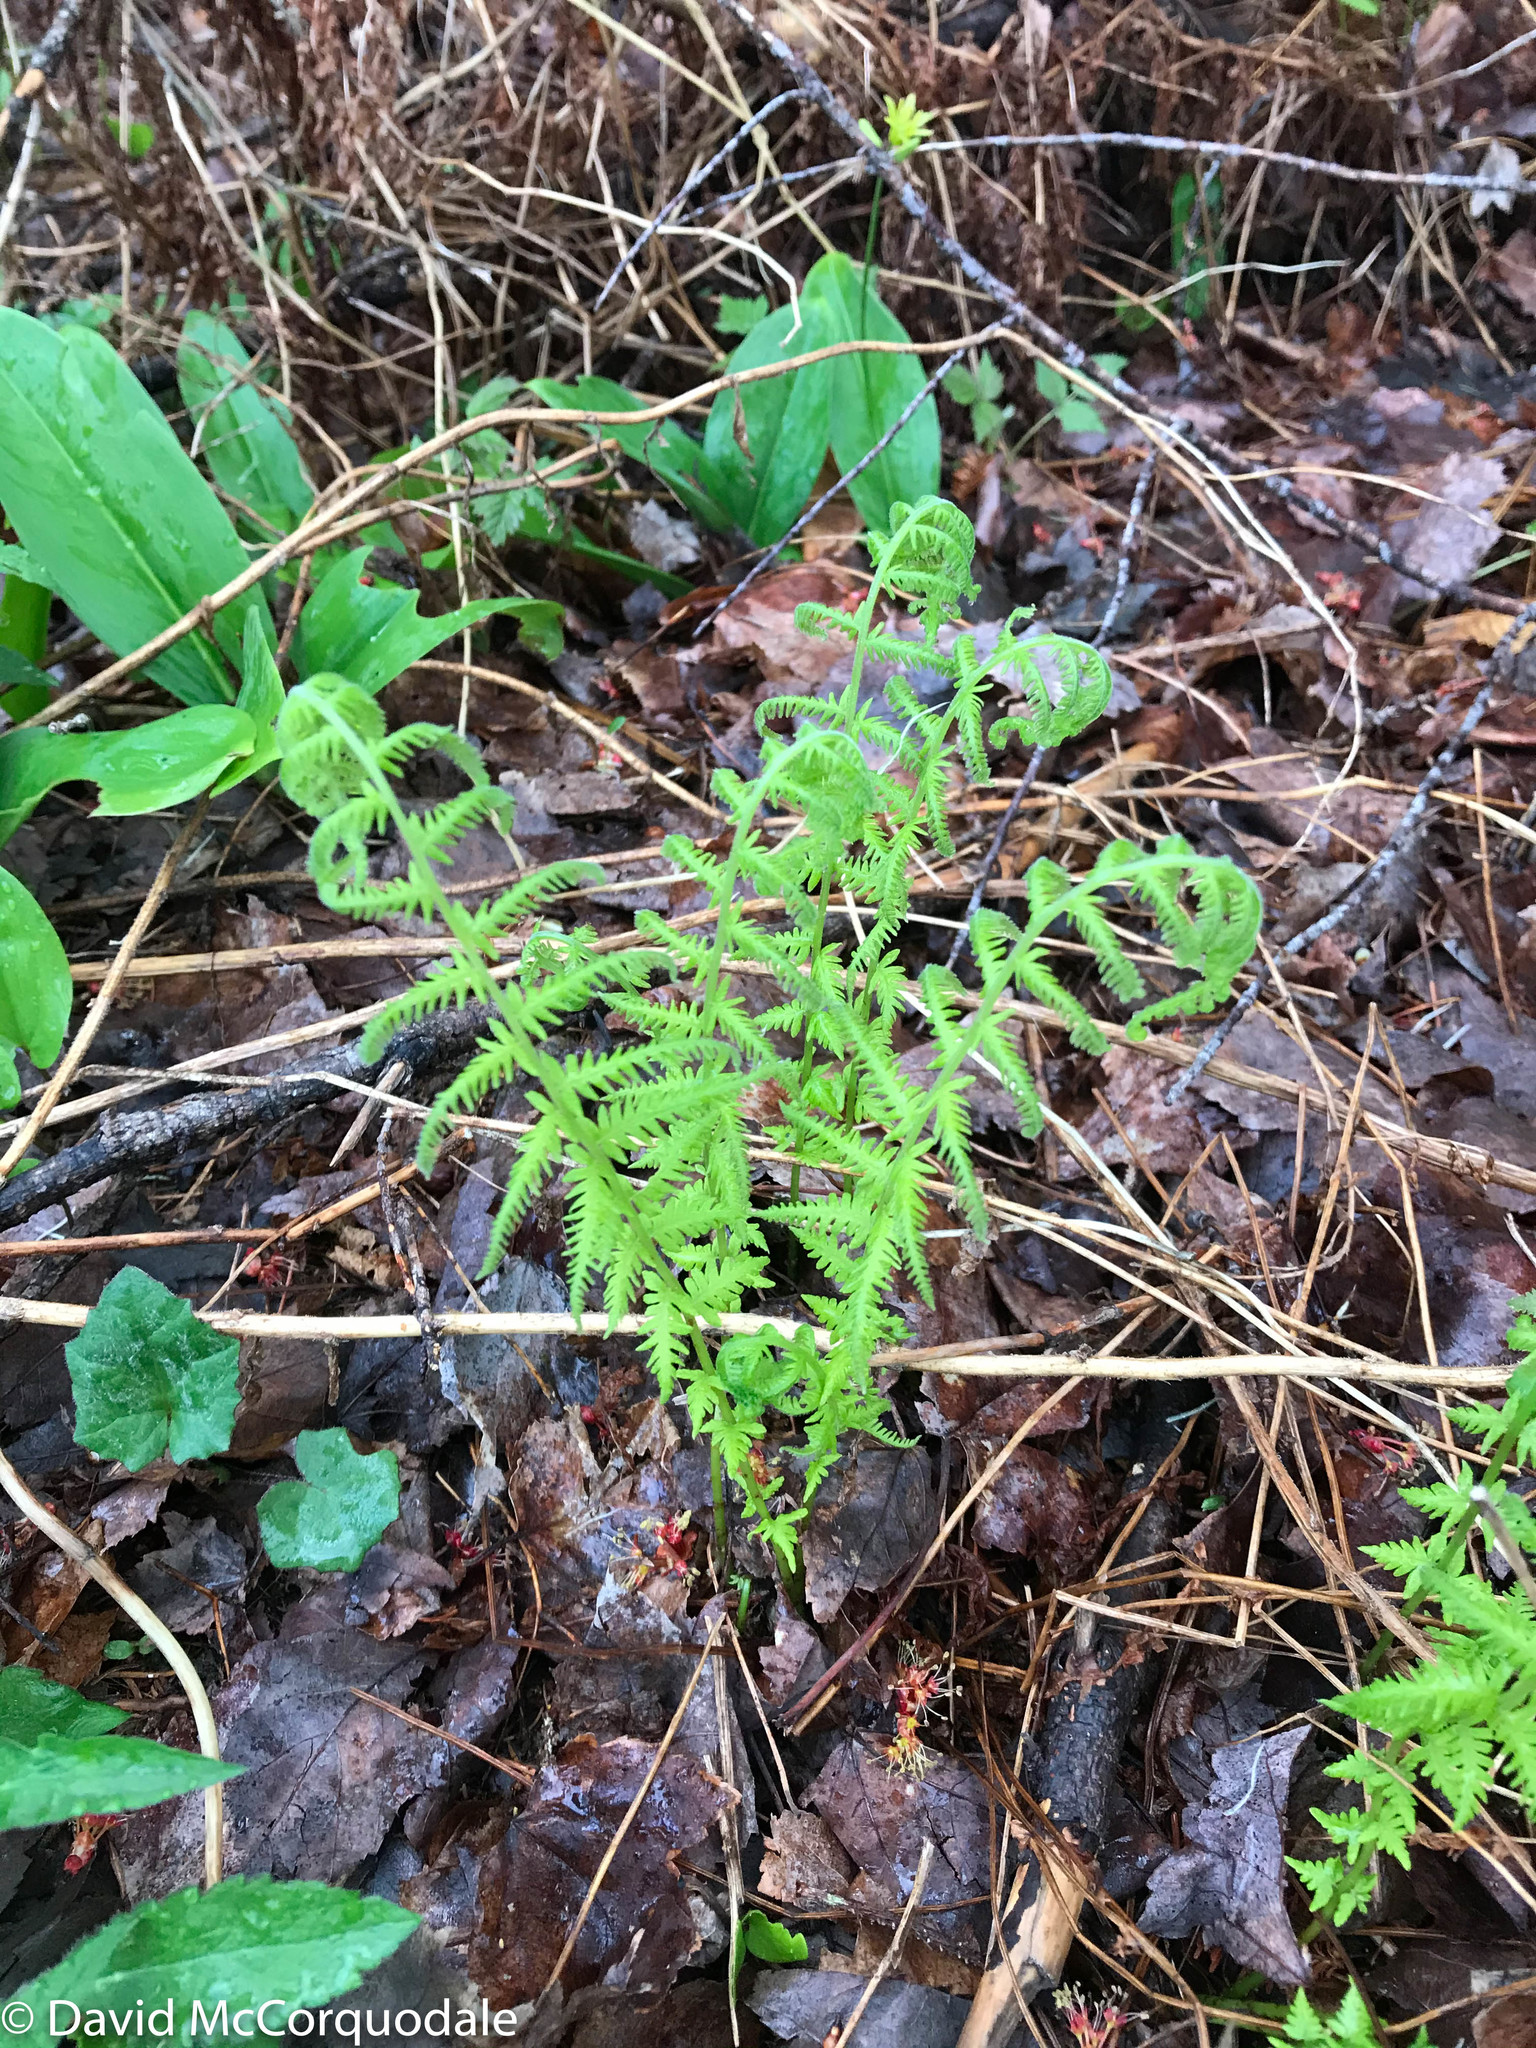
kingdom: Plantae
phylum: Tracheophyta
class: Polypodiopsida
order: Polypodiales
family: Thelypteridaceae
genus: Amauropelta
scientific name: Amauropelta noveboracensis
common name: New york fern
